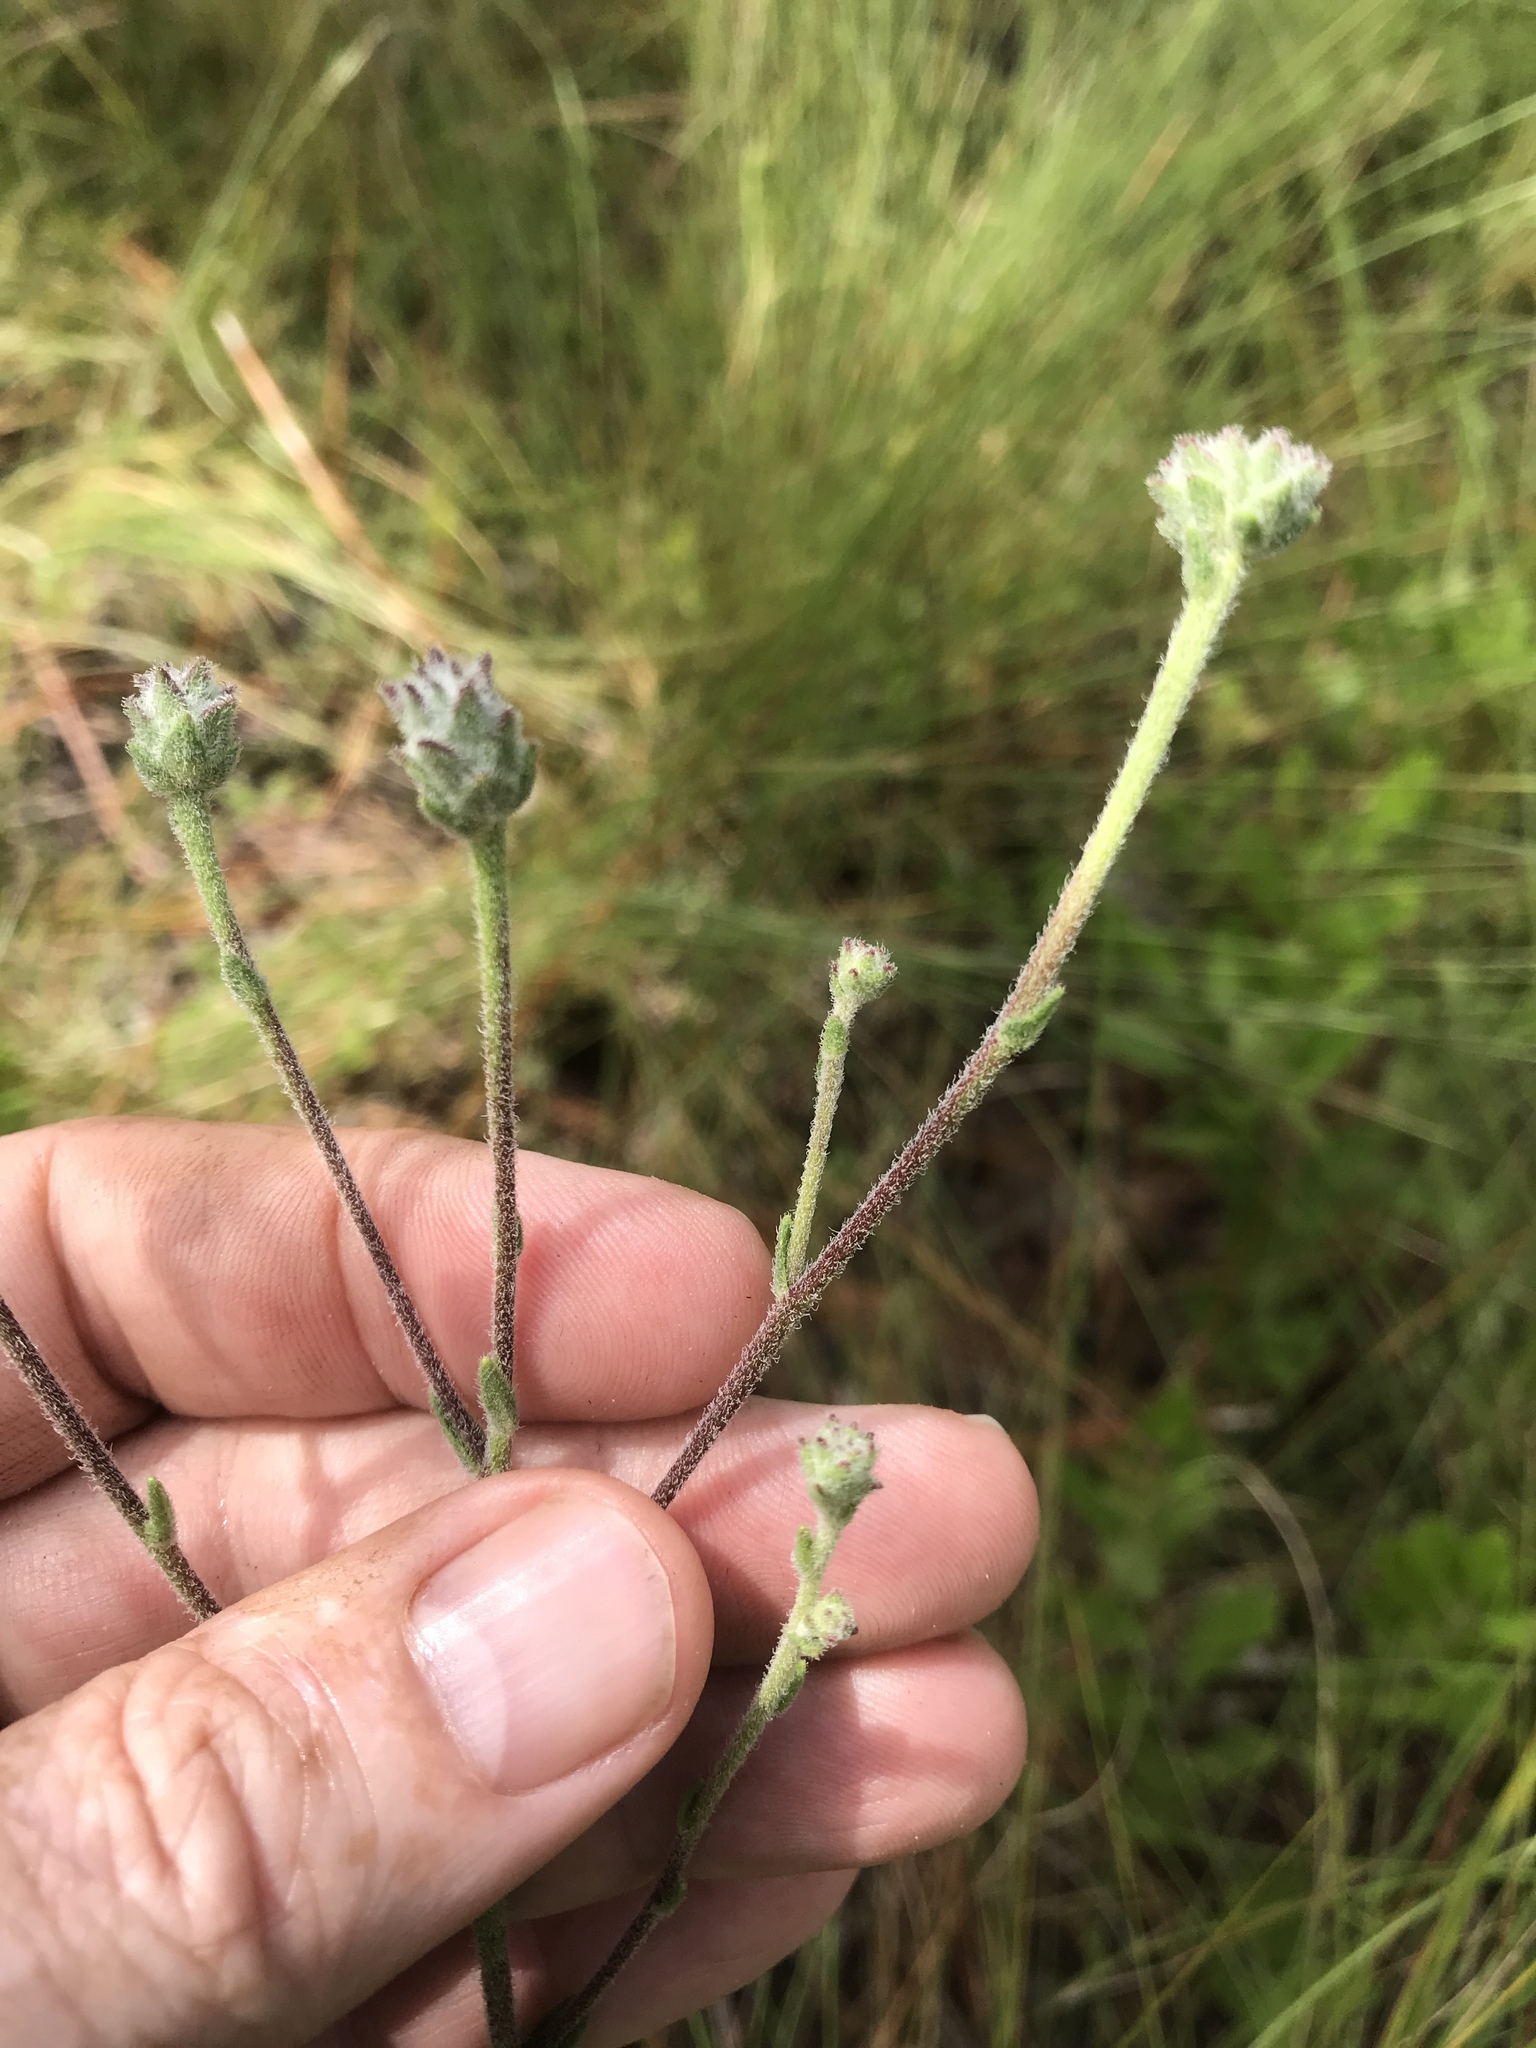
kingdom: Plantae
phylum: Tracheophyta
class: Magnoliopsida
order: Asterales
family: Asteraceae
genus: Carphephorus
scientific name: Carphephorus tomentosus
